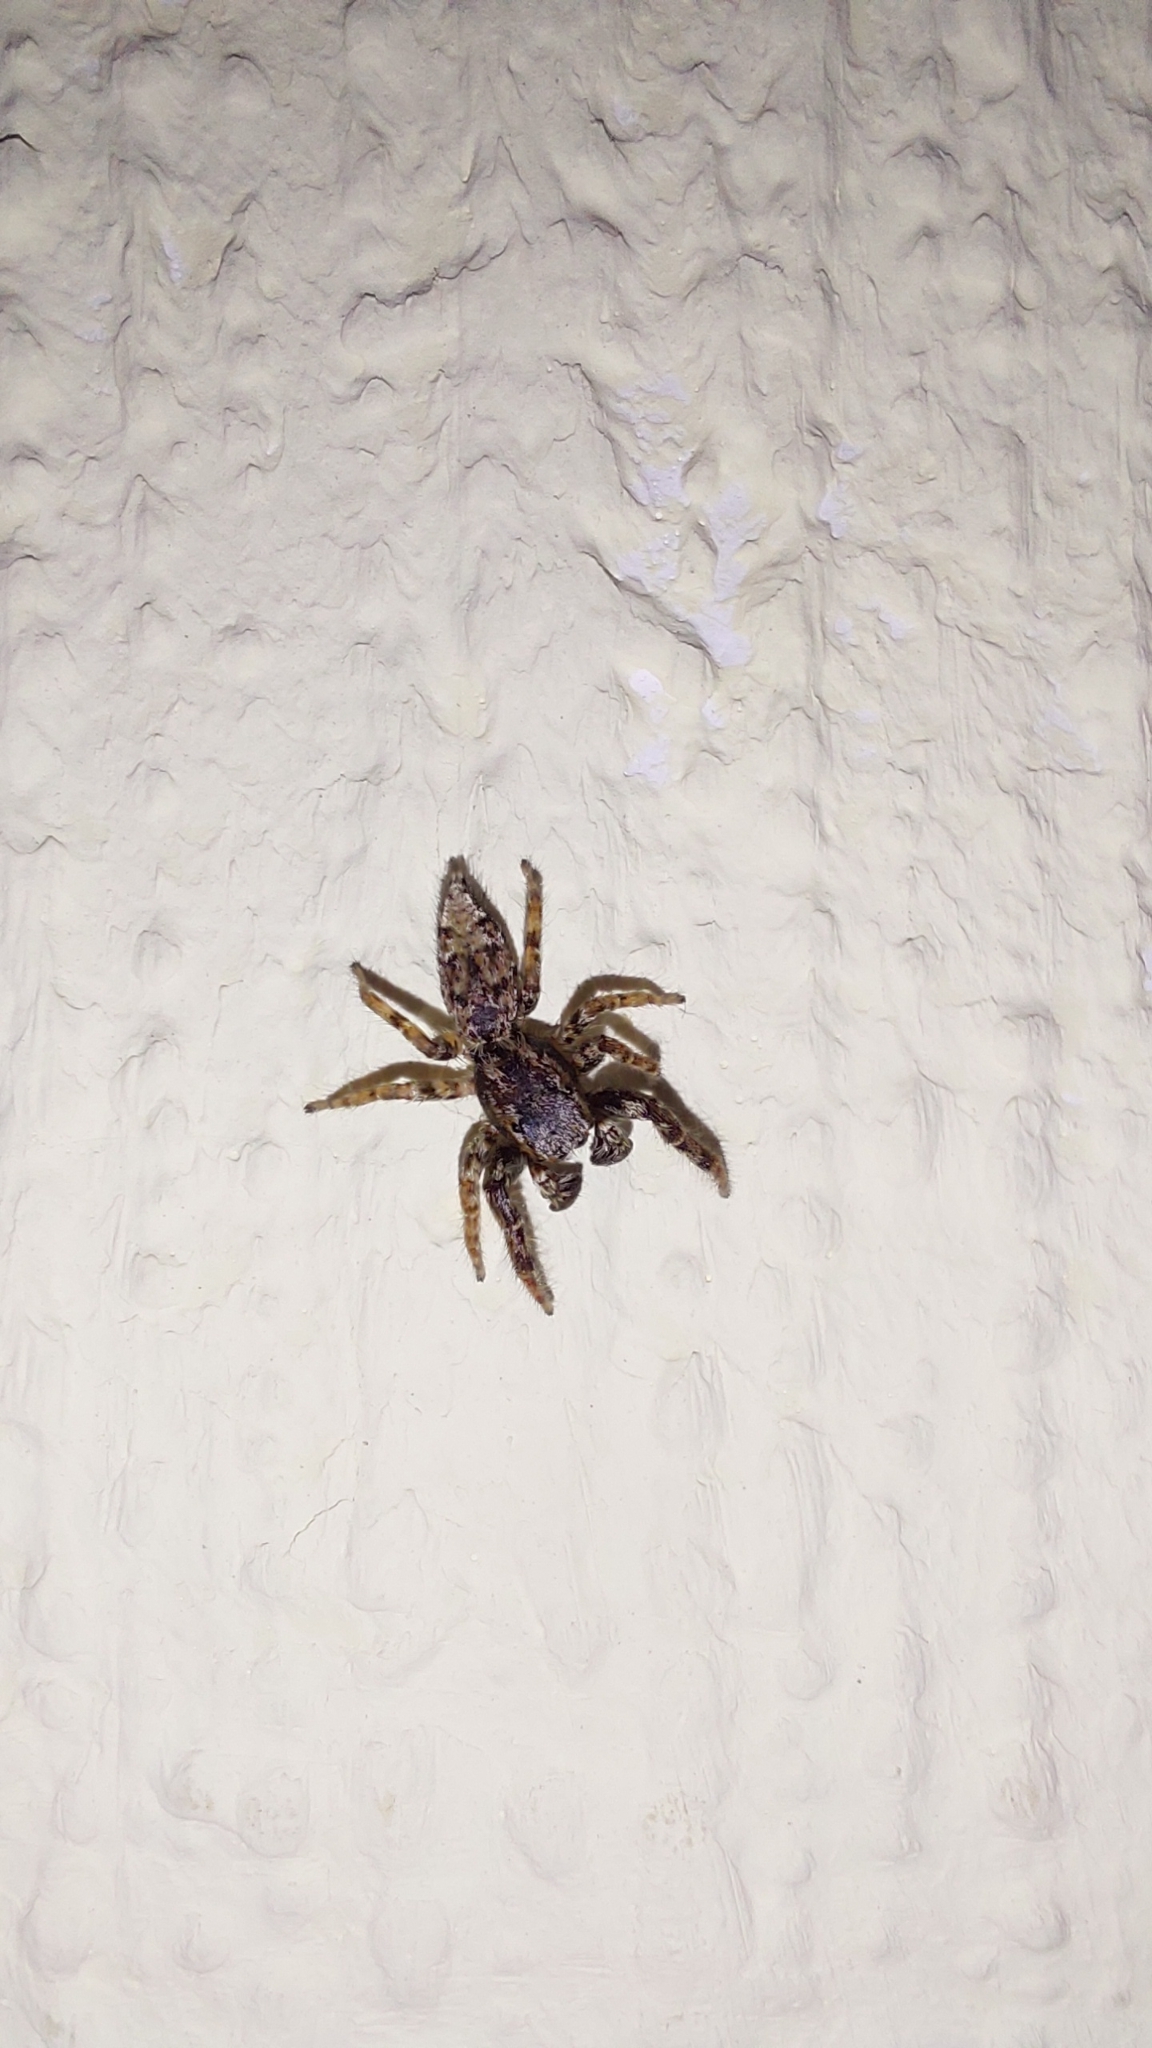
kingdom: Animalia
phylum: Arthropoda
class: Arachnida
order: Araneae
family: Salticidae
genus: Marpissa
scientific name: Marpissa muscosa
